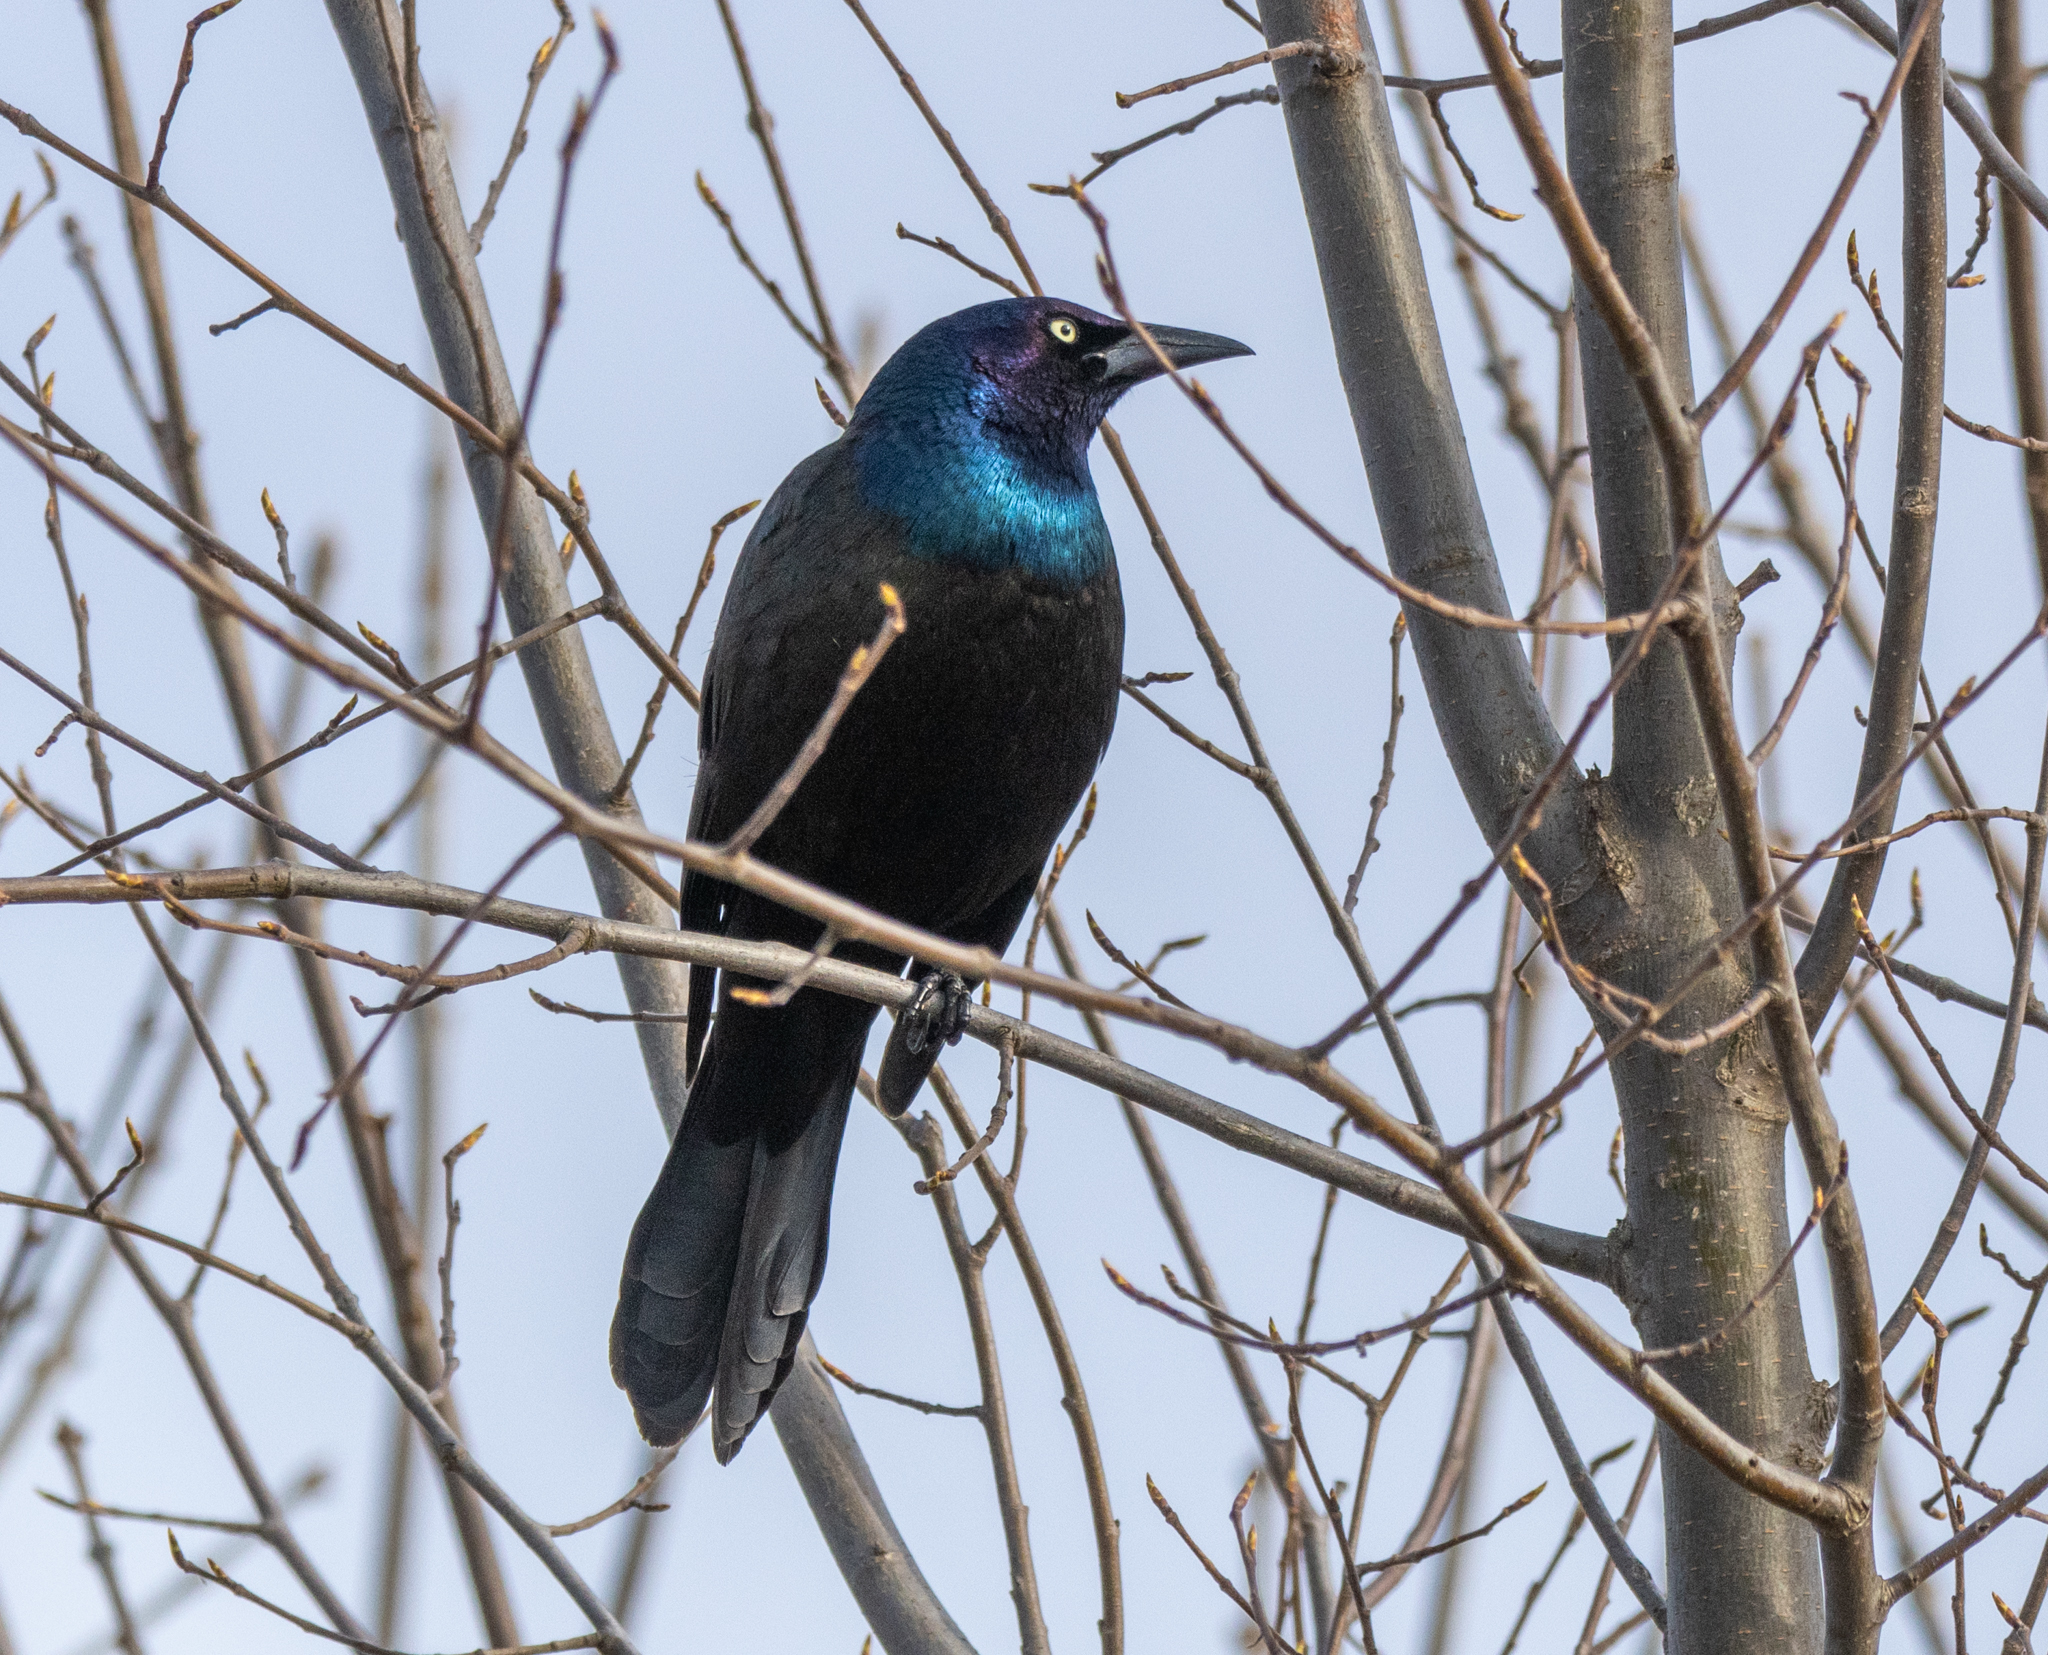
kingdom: Animalia
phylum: Chordata
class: Aves
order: Passeriformes
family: Icteridae
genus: Quiscalus
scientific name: Quiscalus quiscula
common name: Common grackle
